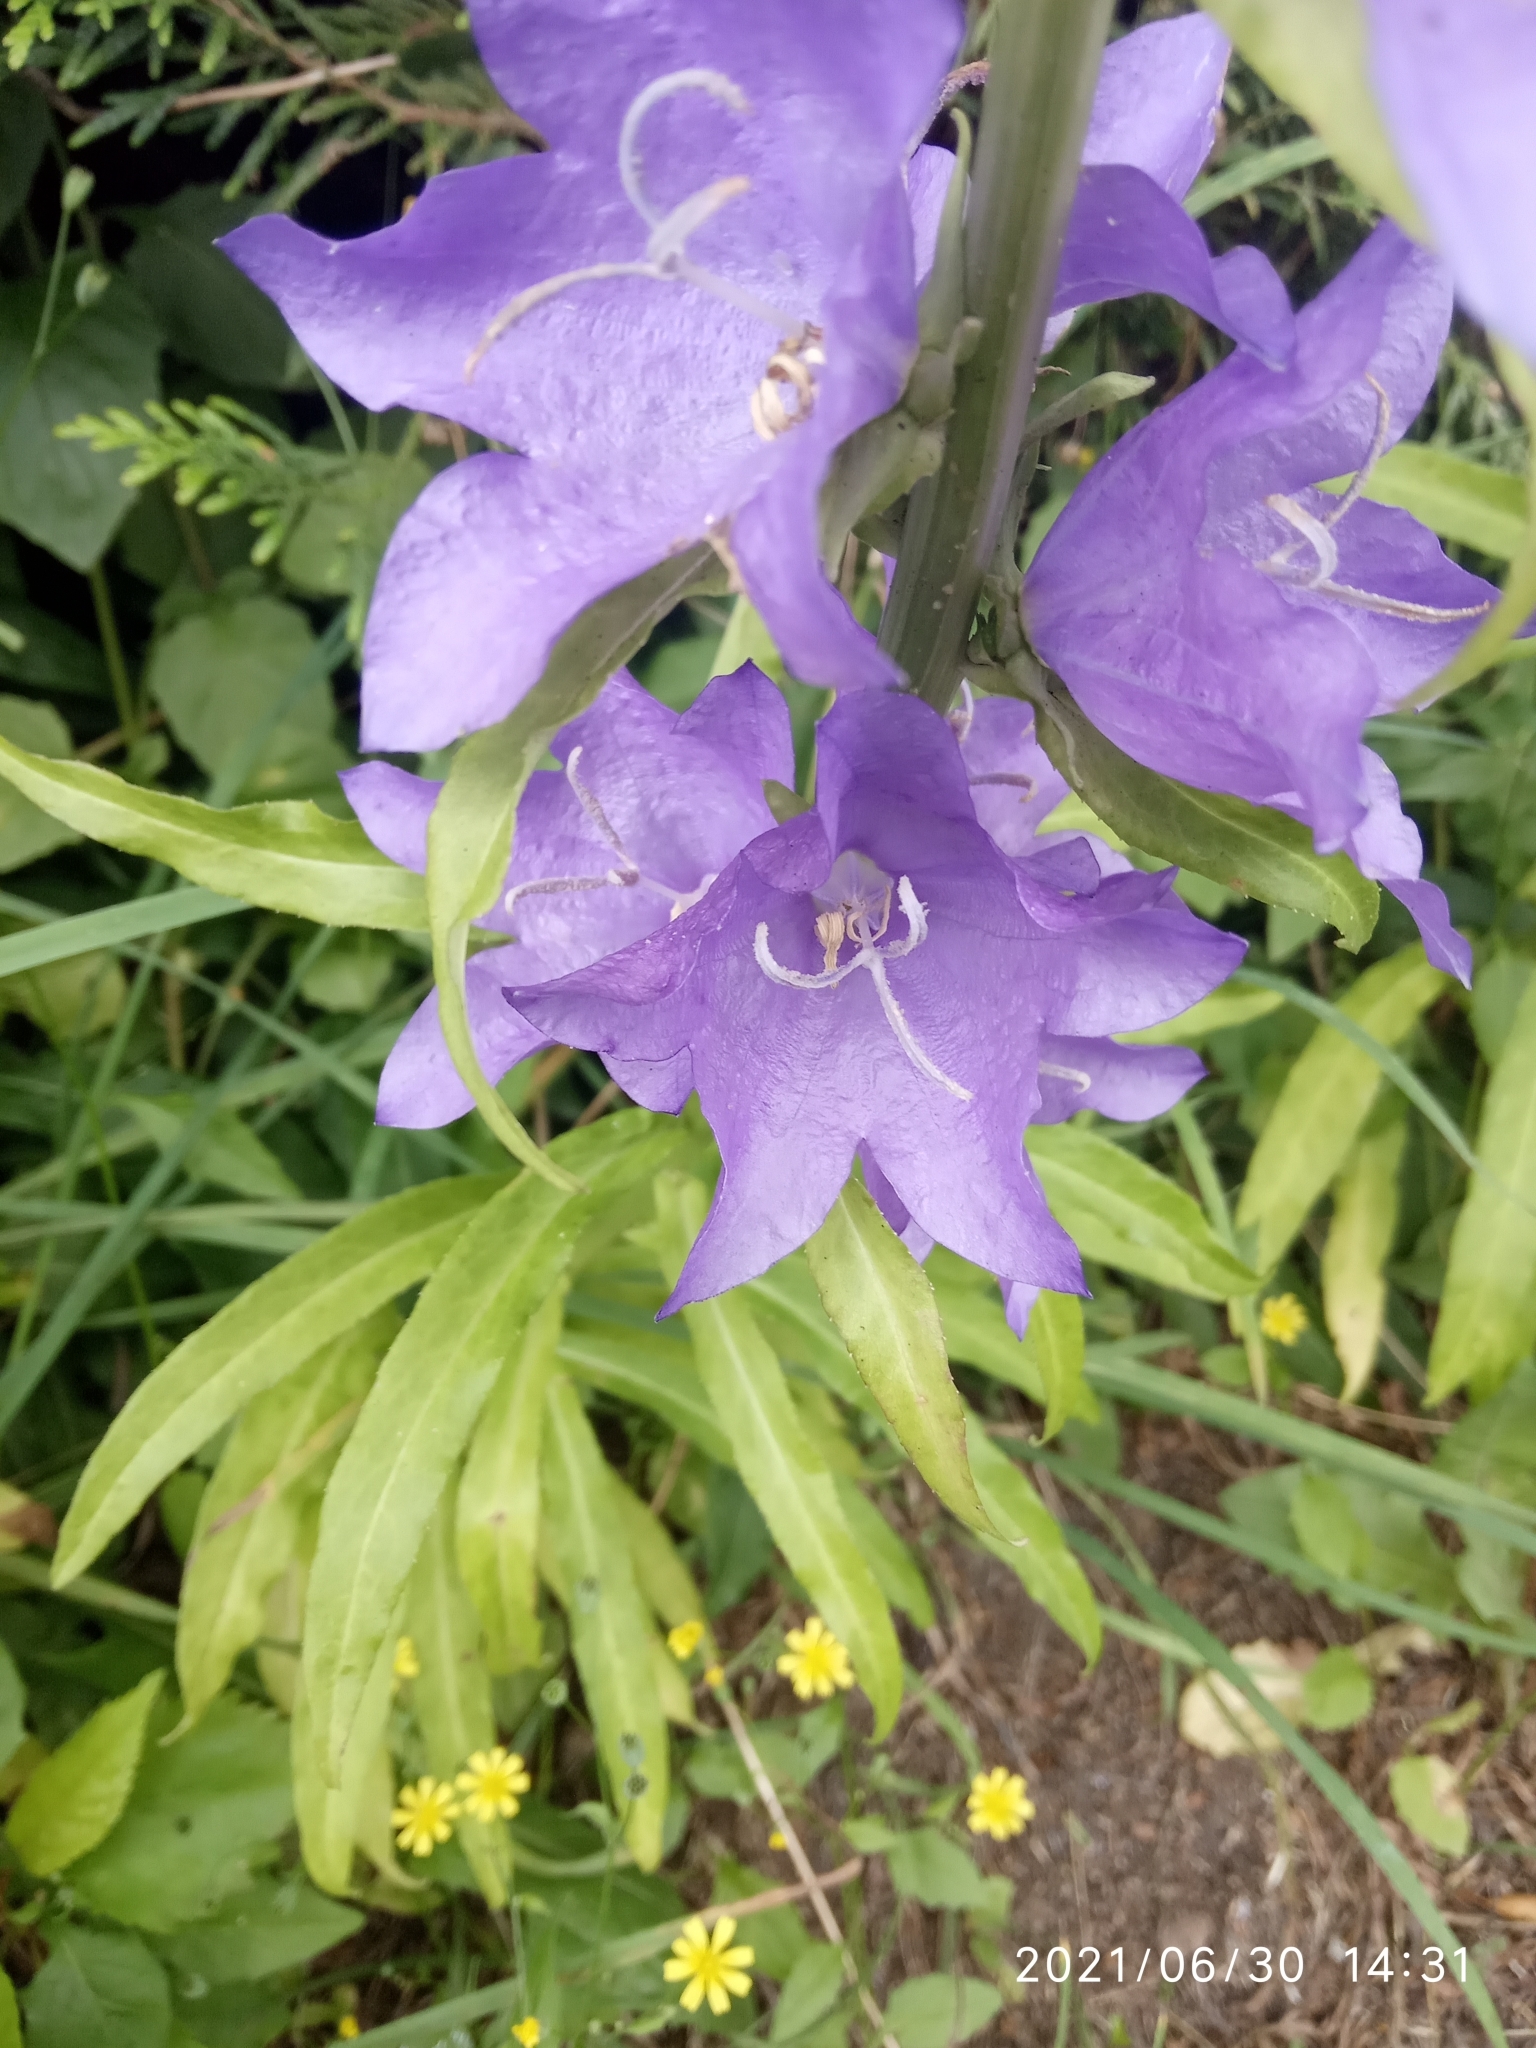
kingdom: Plantae
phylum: Tracheophyta
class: Magnoliopsida
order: Asterales
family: Campanulaceae
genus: Campanula
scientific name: Campanula persicifolia
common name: Peach-leaved bellflower
